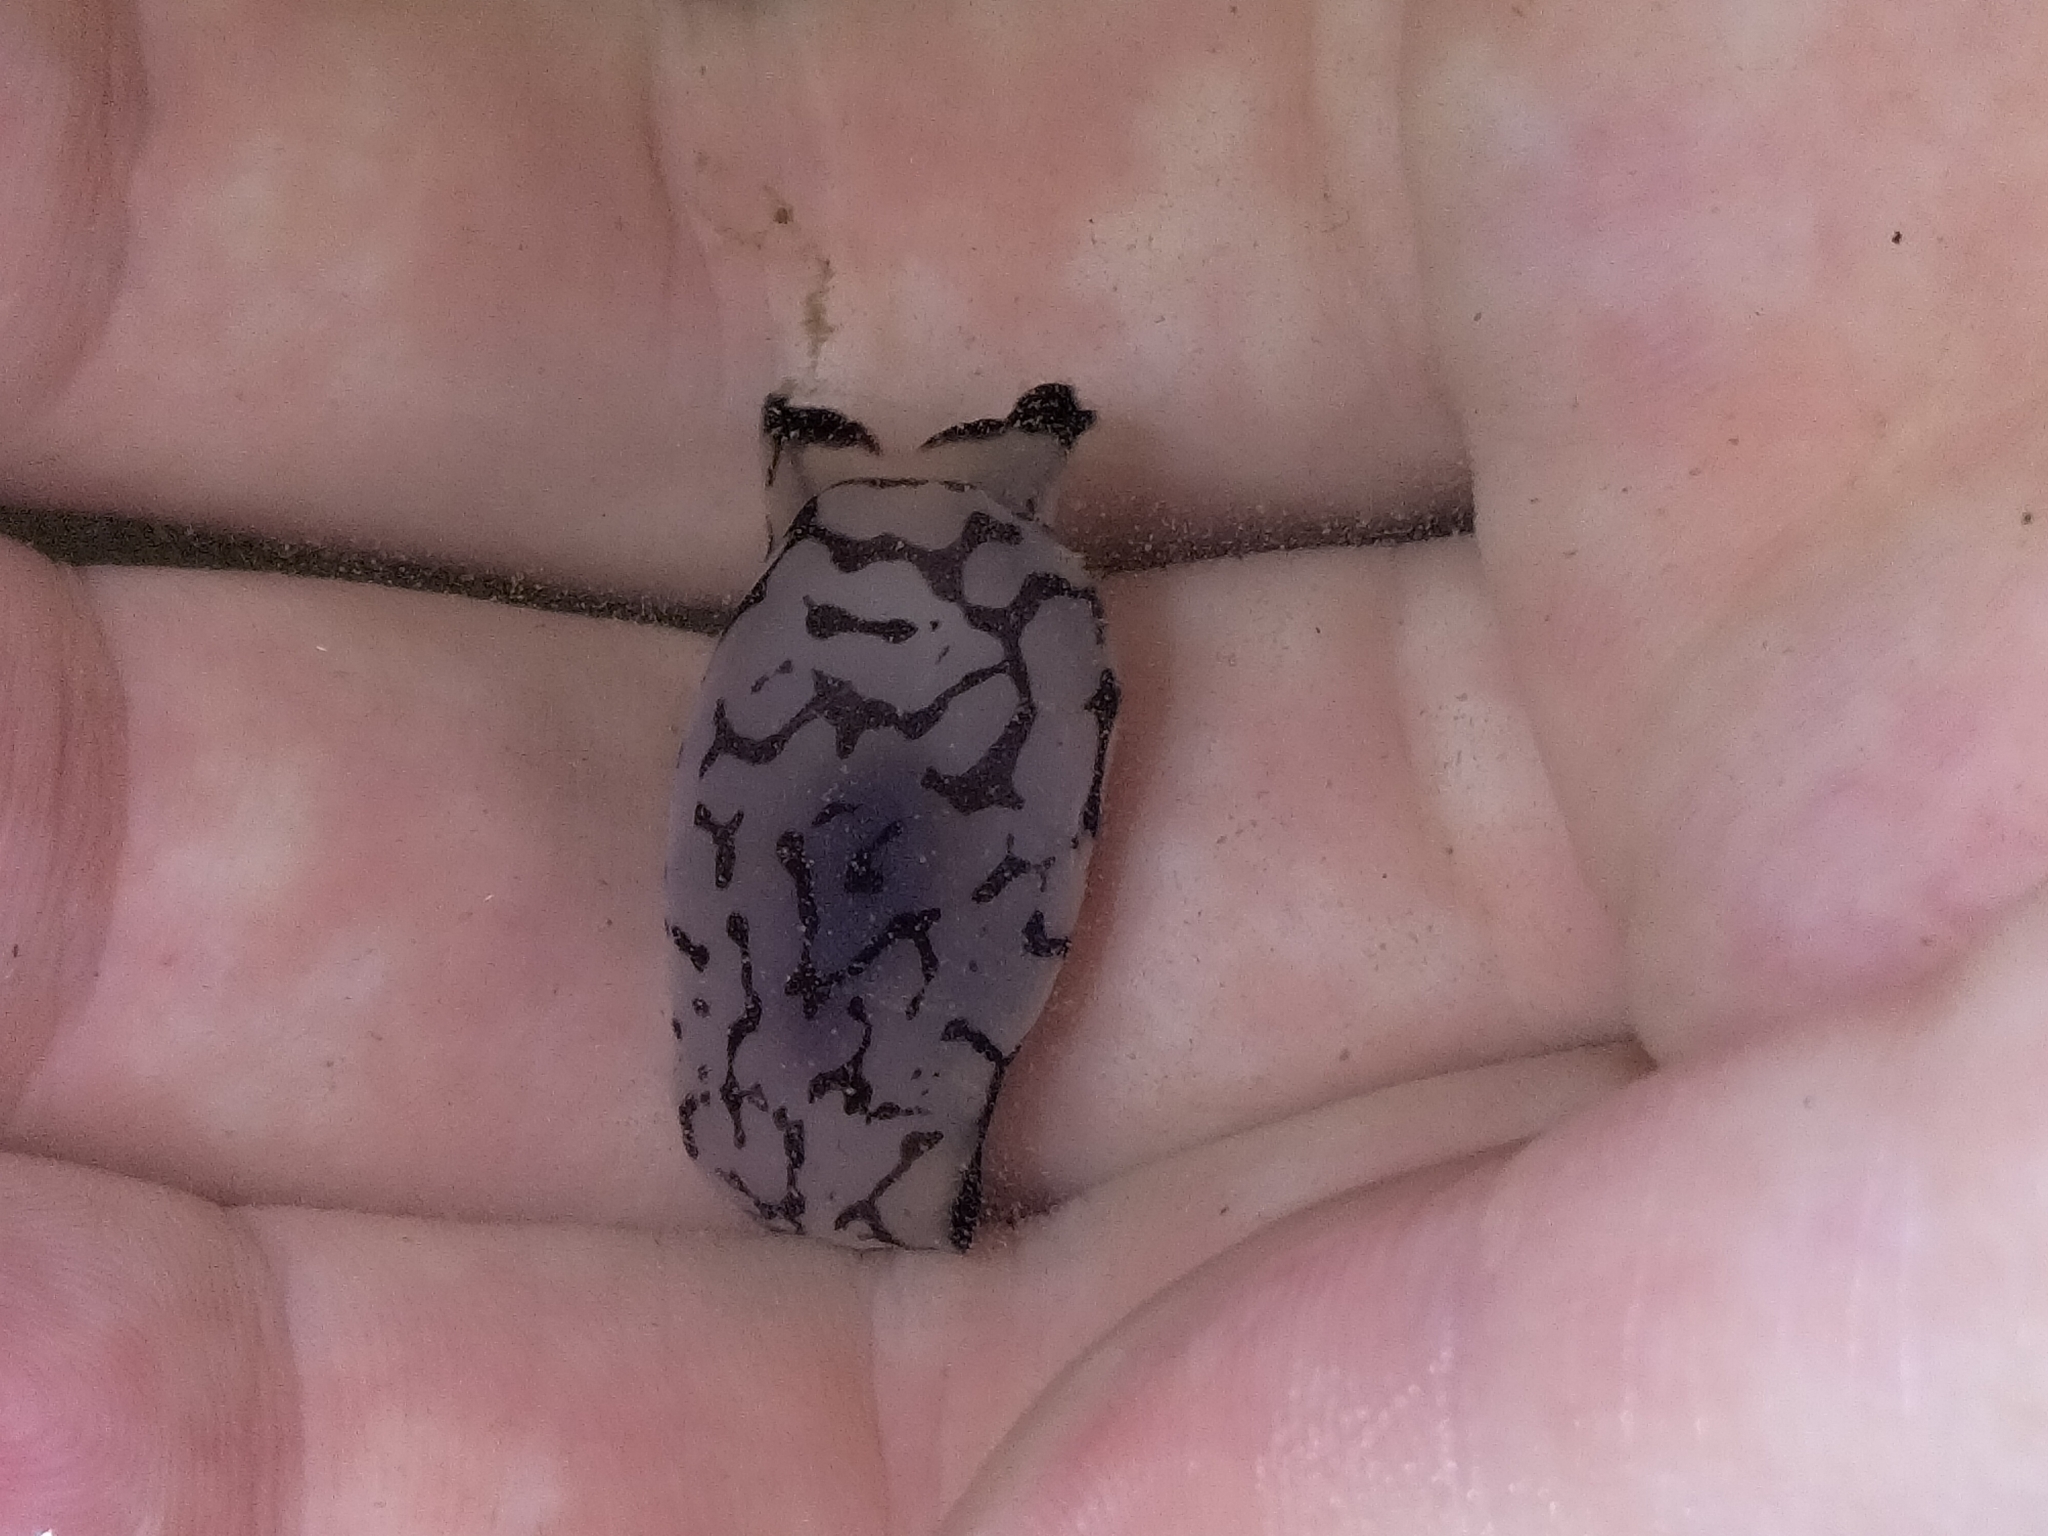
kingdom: Animalia
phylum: Mollusca
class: Gastropoda
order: Cephalaspidea
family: Aglajidae
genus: Tubulophilinopsis
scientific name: Tubulophilinopsis pilsbryi
